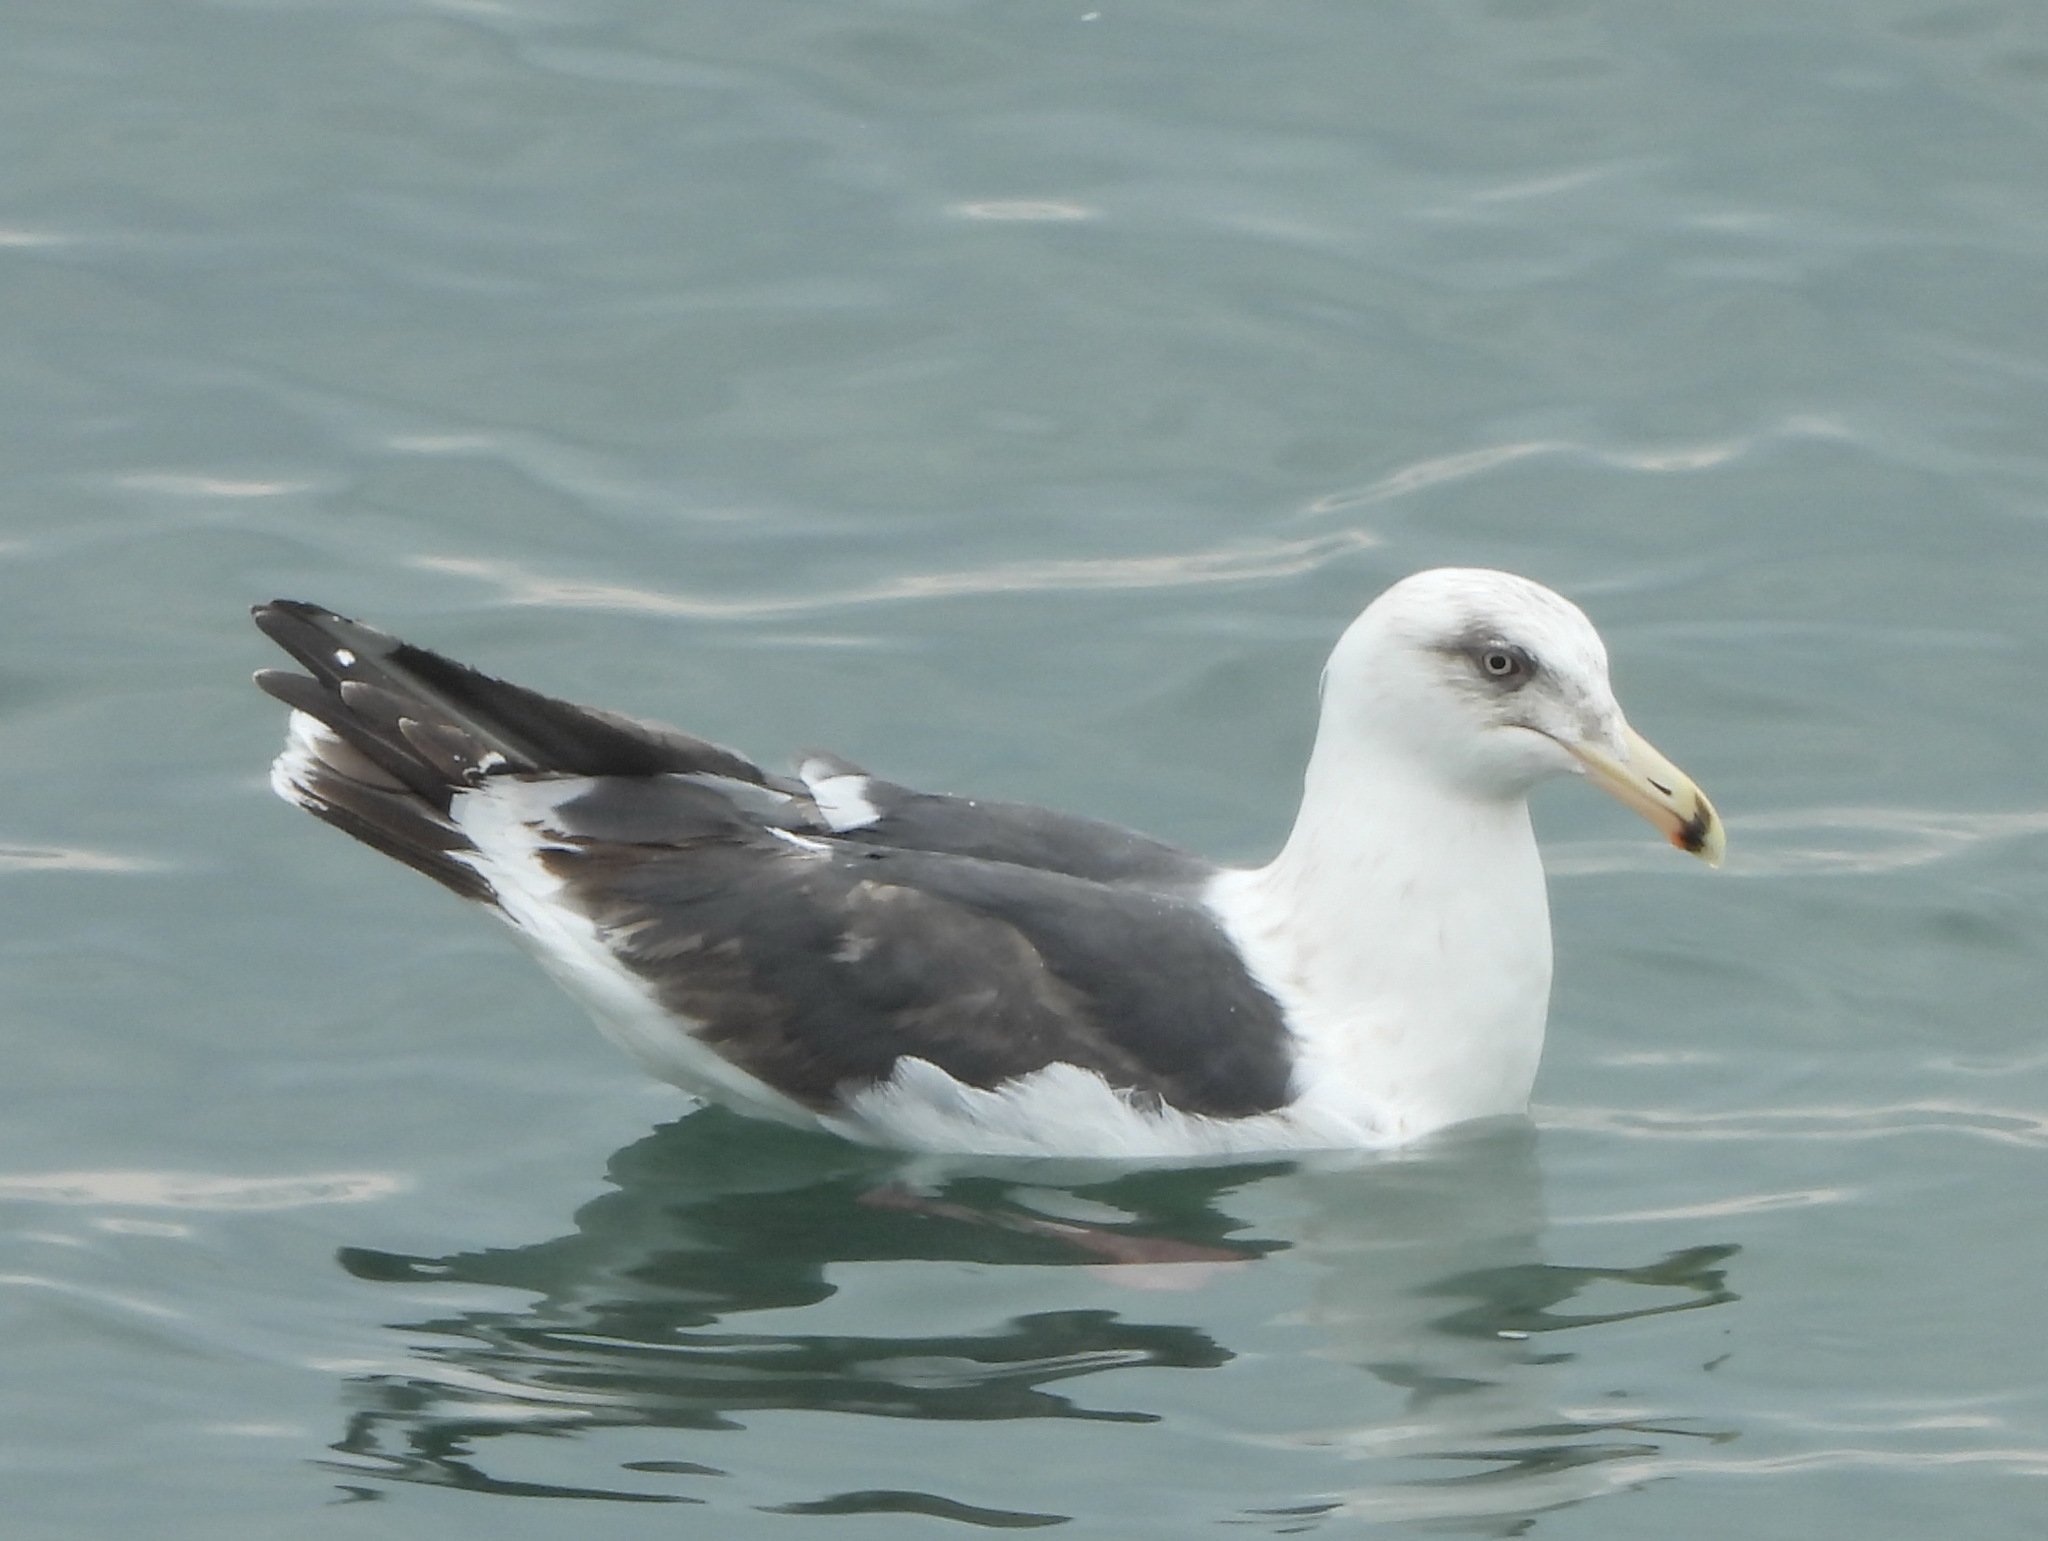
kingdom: Animalia
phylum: Chordata
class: Aves
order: Charadriiformes
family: Laridae
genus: Larus
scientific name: Larus schistisagus
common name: Slaty-backed gull
